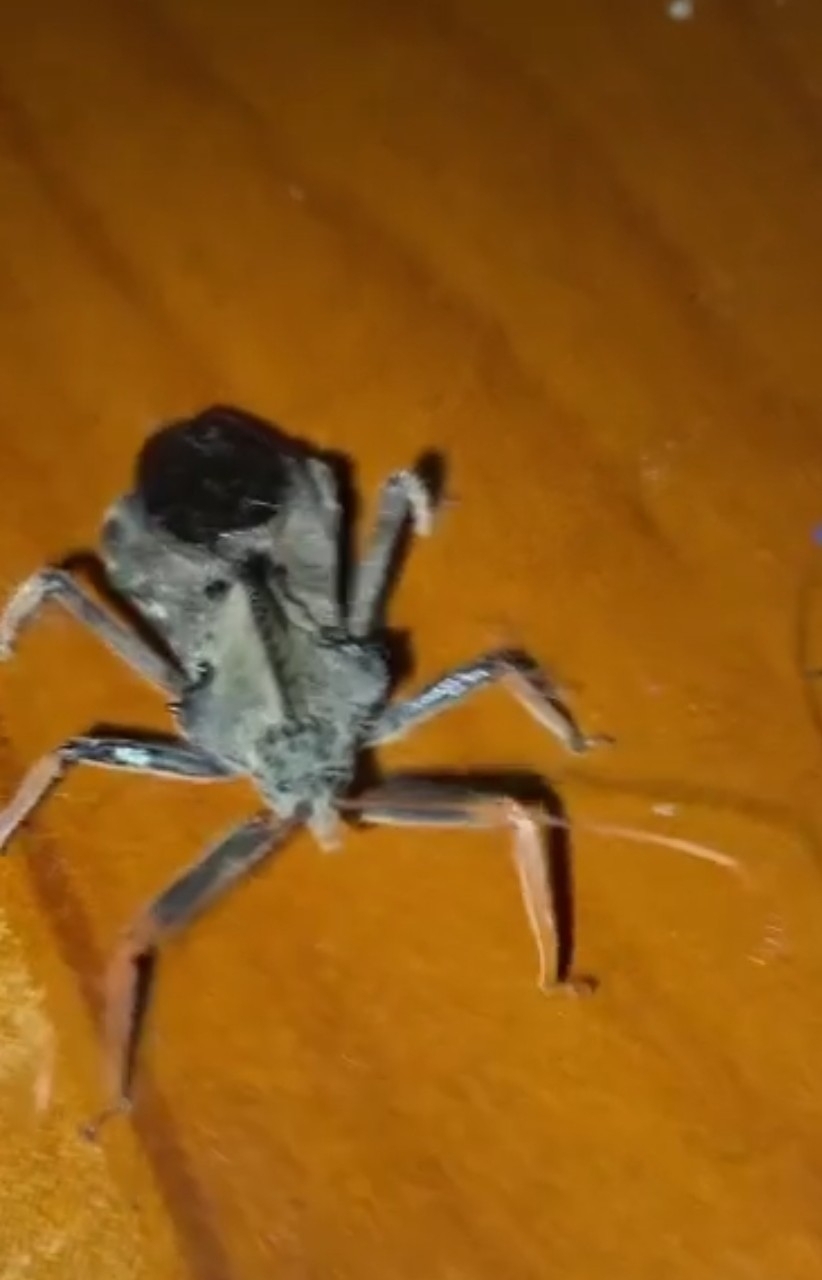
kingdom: Animalia
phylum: Arthropoda
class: Insecta
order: Hemiptera
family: Reduviidae
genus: Arilus
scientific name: Arilus carinatus
